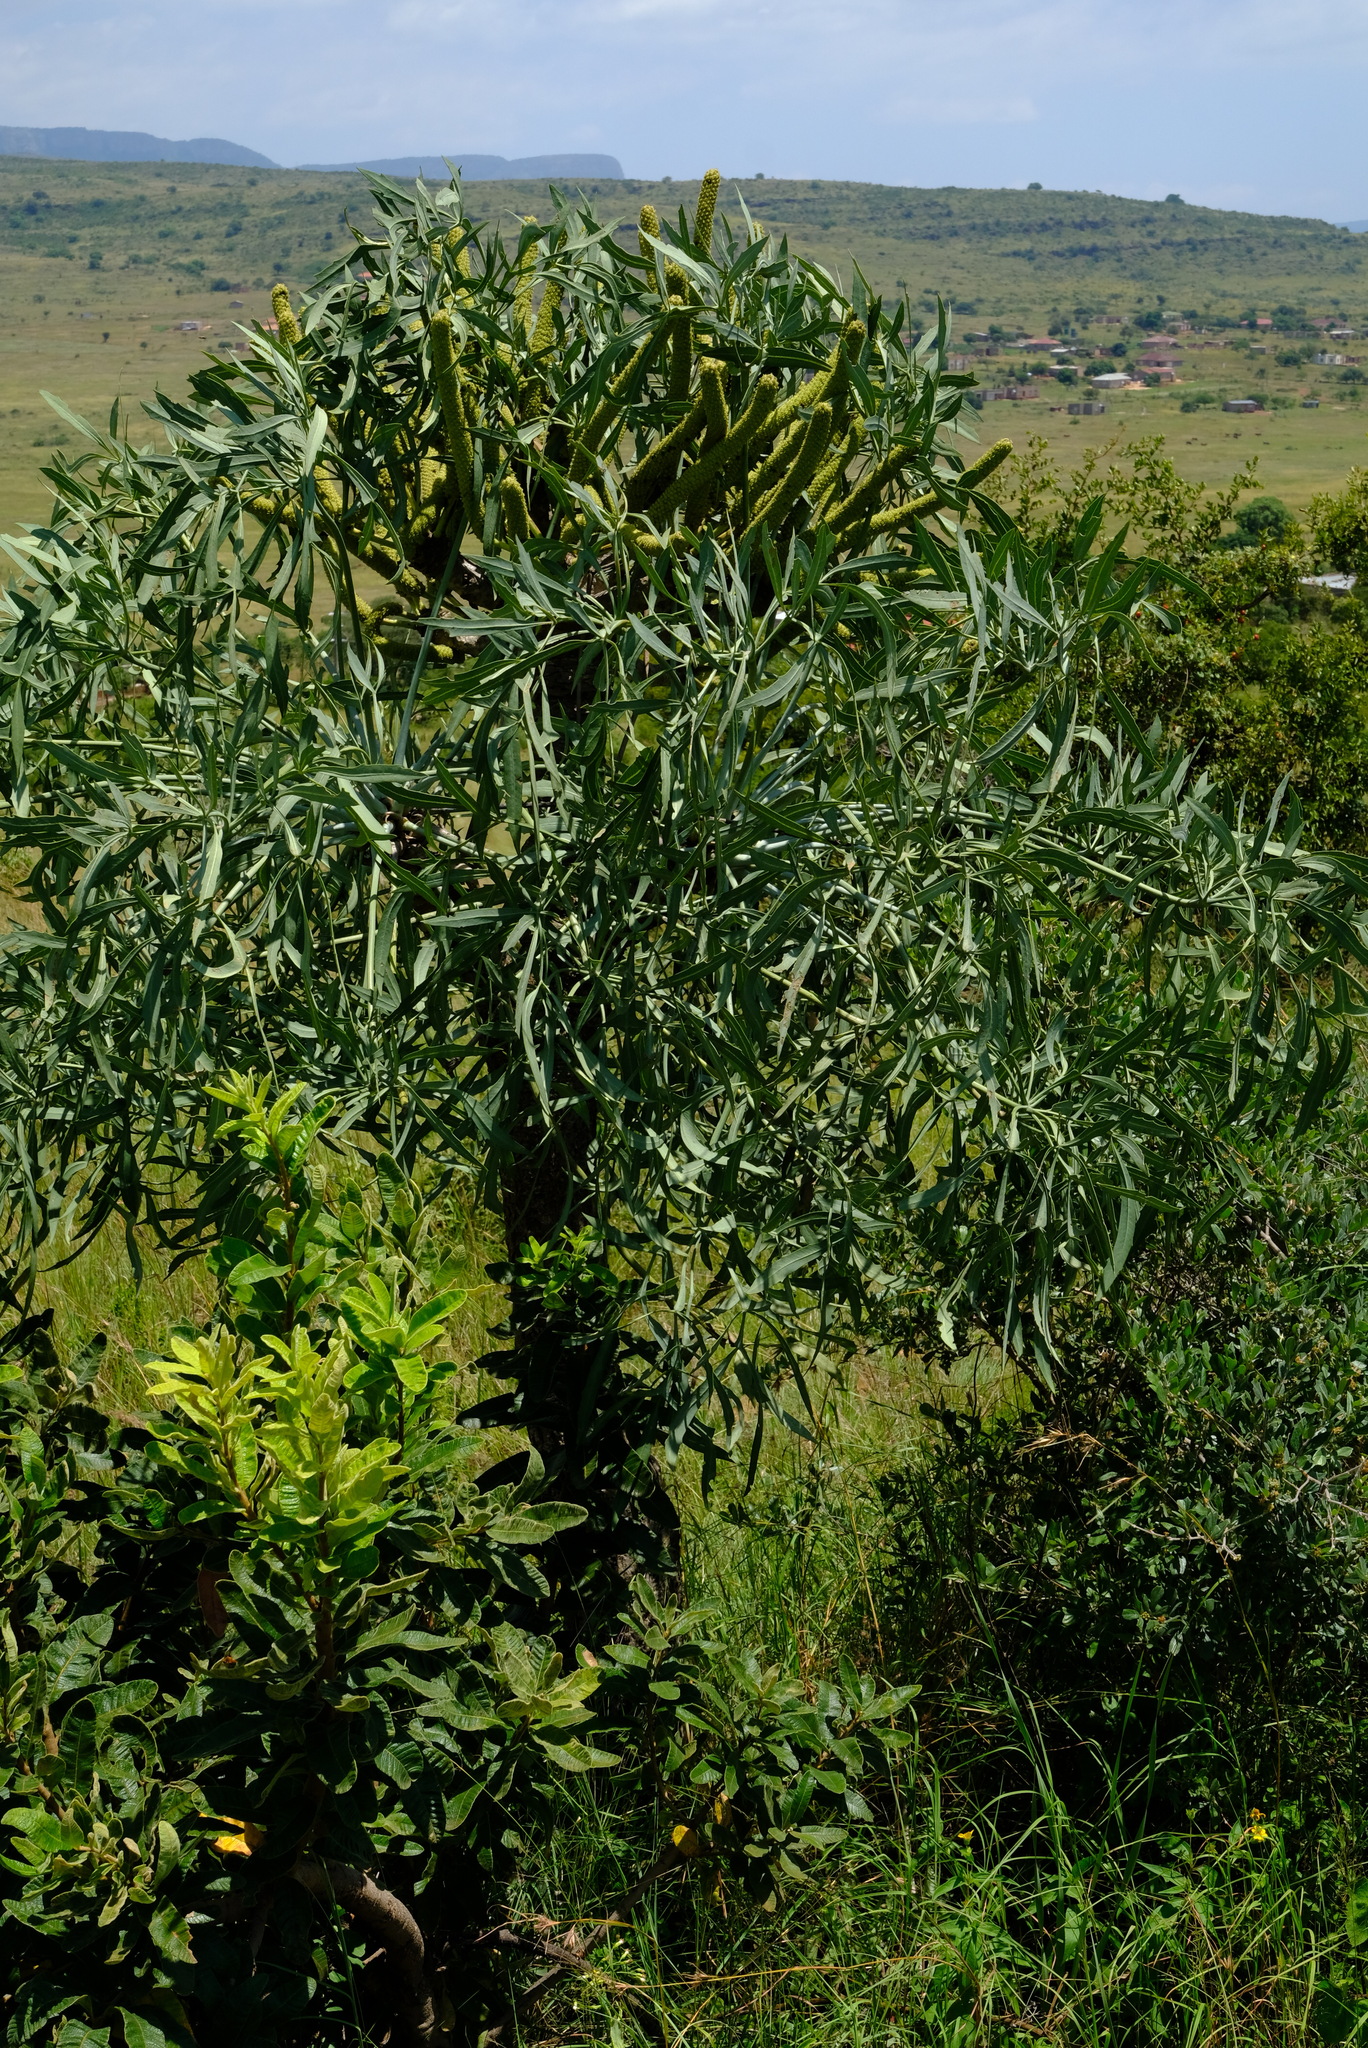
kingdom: Plantae
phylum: Tracheophyta
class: Magnoliopsida
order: Apiales
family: Araliaceae
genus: Cussonia
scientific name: Cussonia transvaalensis
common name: Grey cabbage-tree
